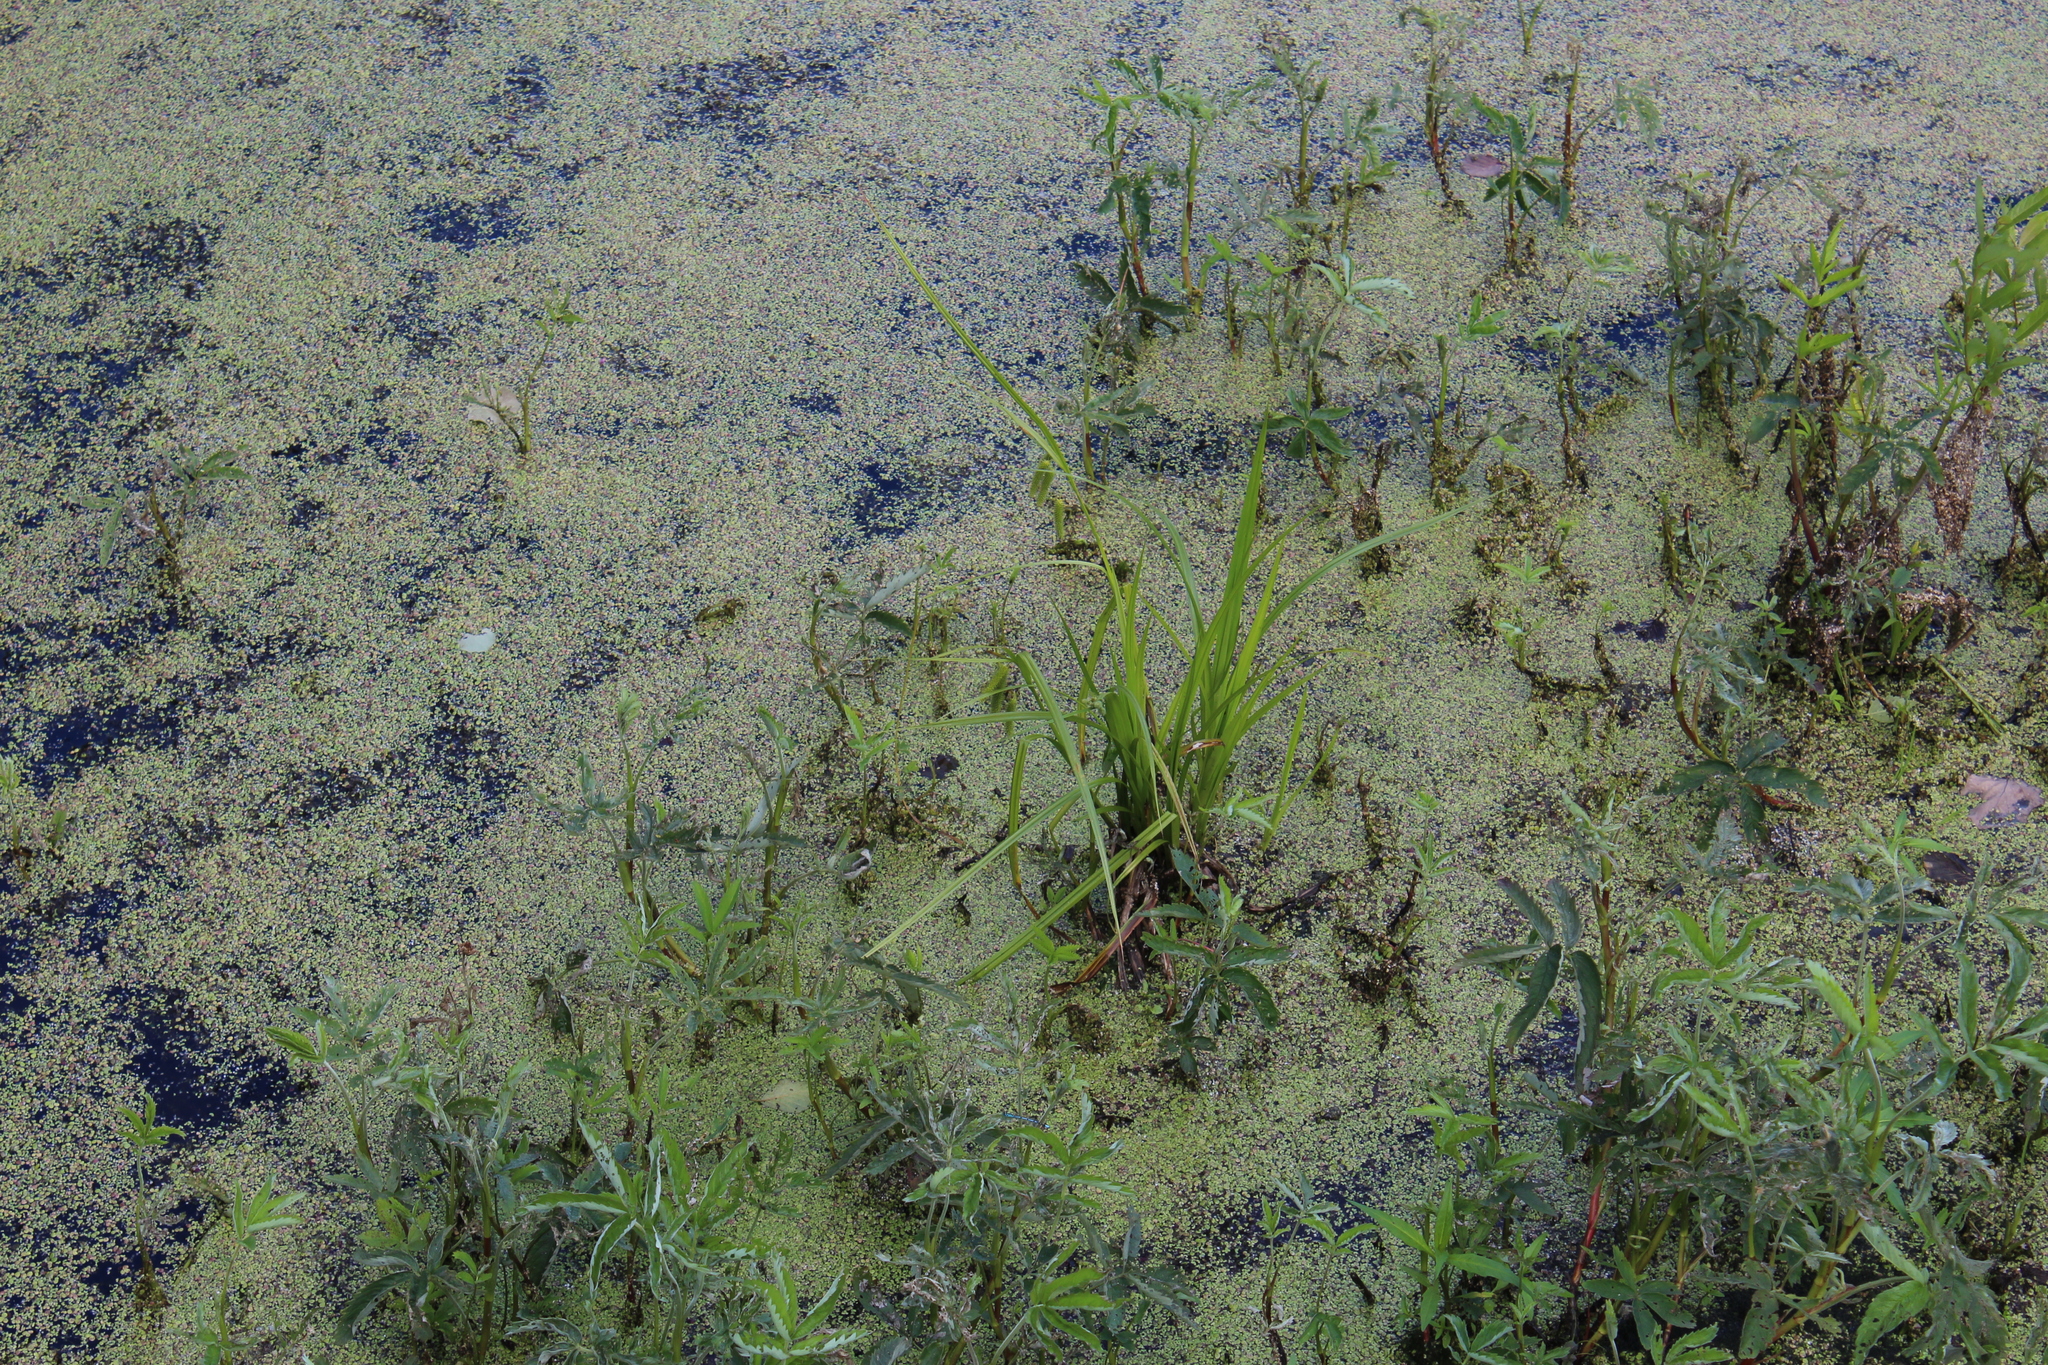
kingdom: Plantae
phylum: Tracheophyta
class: Liliopsida
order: Poales
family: Cyperaceae
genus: Carex
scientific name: Carex pseudocyperus
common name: Cyperus sedge
